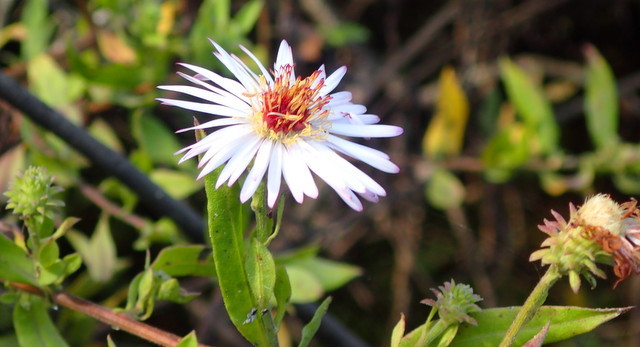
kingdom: Plantae
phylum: Tracheophyta
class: Magnoliopsida
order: Asterales
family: Asteraceae
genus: Ampelaster
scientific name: Ampelaster carolinianus
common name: Climbing aster
